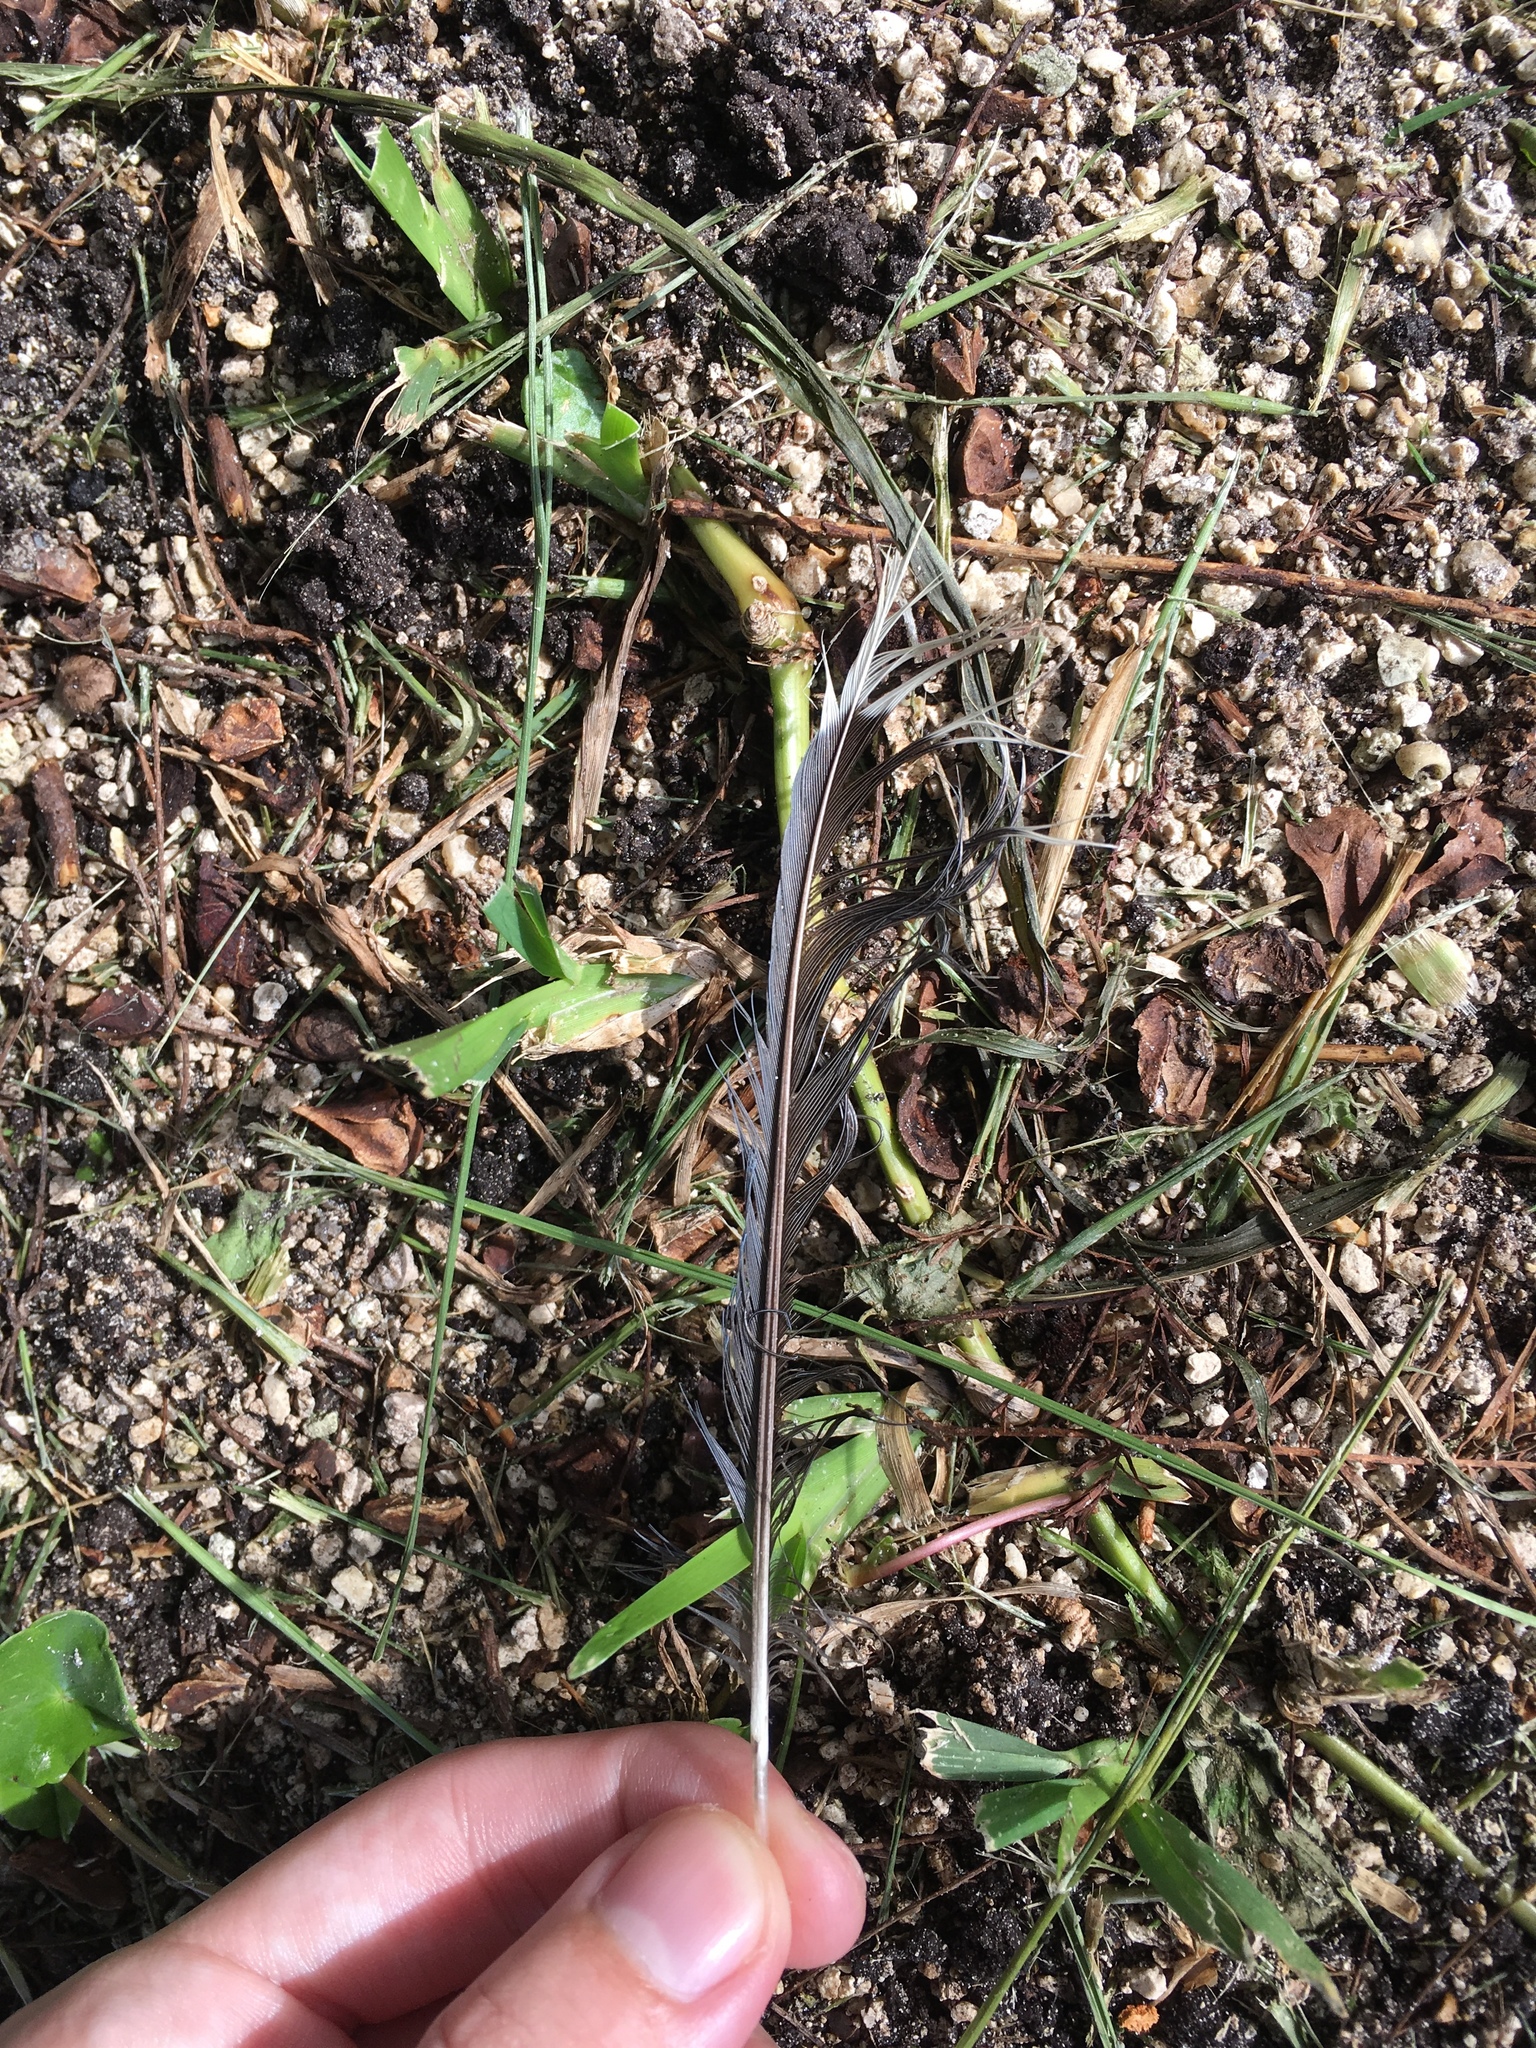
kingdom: Animalia
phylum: Chordata
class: Aves
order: Passeriformes
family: Corvidae
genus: Cyanocitta
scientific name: Cyanocitta cristata
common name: Blue jay
